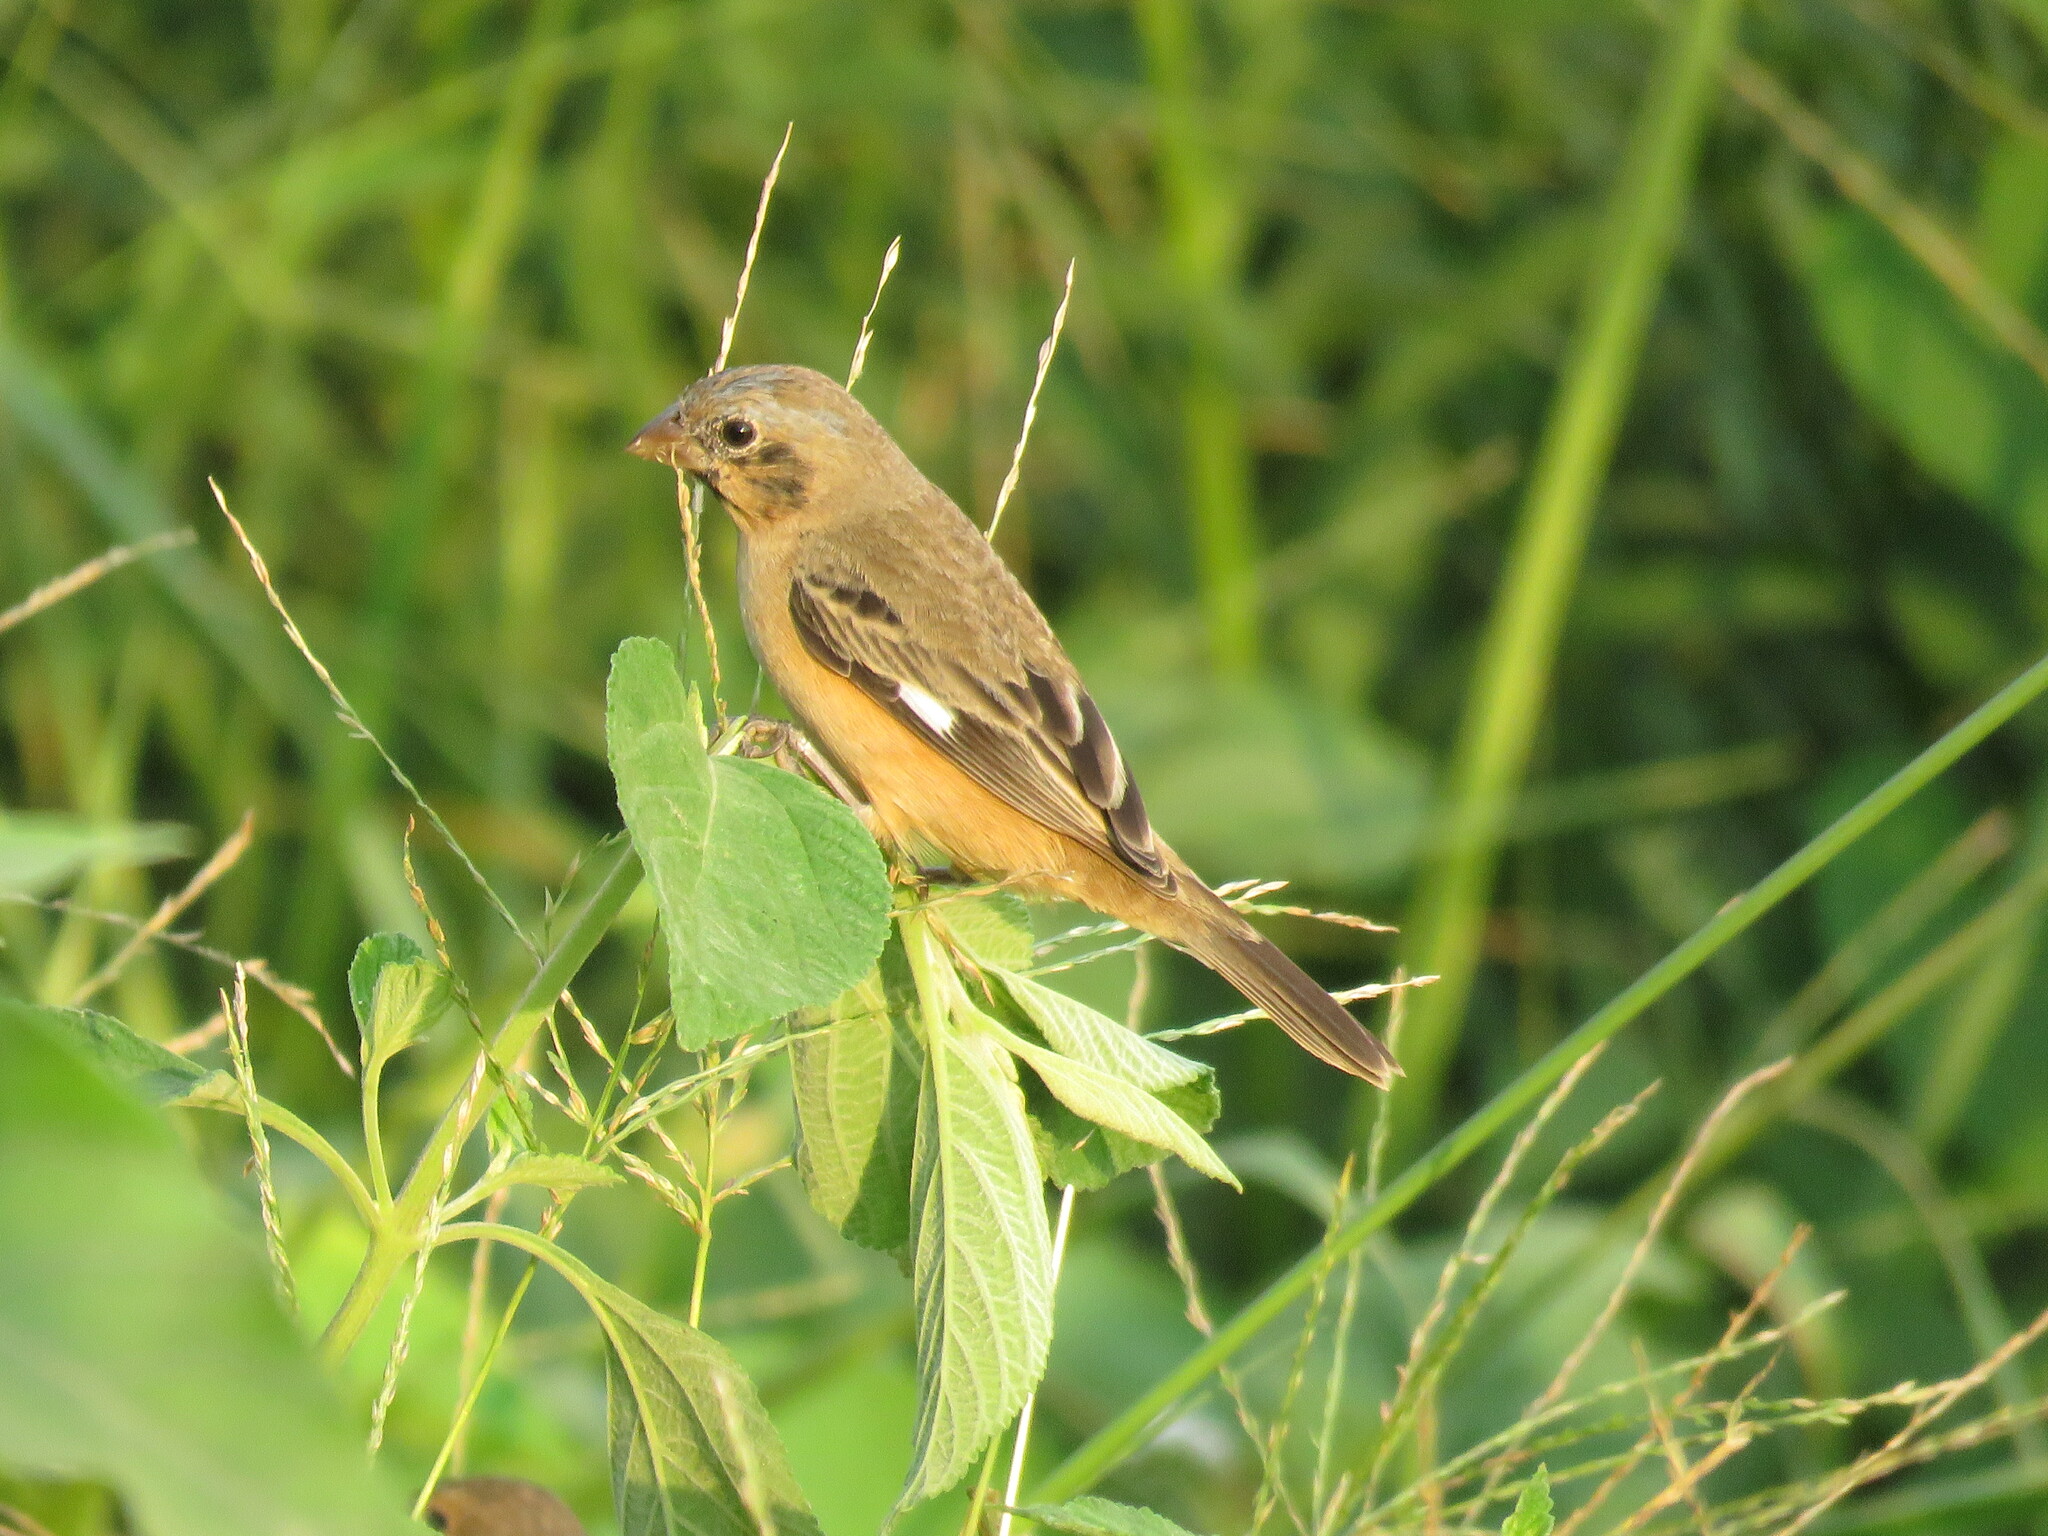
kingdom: Animalia
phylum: Chordata
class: Aves
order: Passeriformes
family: Thraupidae
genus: Sporophila
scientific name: Sporophila ruficollis
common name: Dark-throated seedeater
